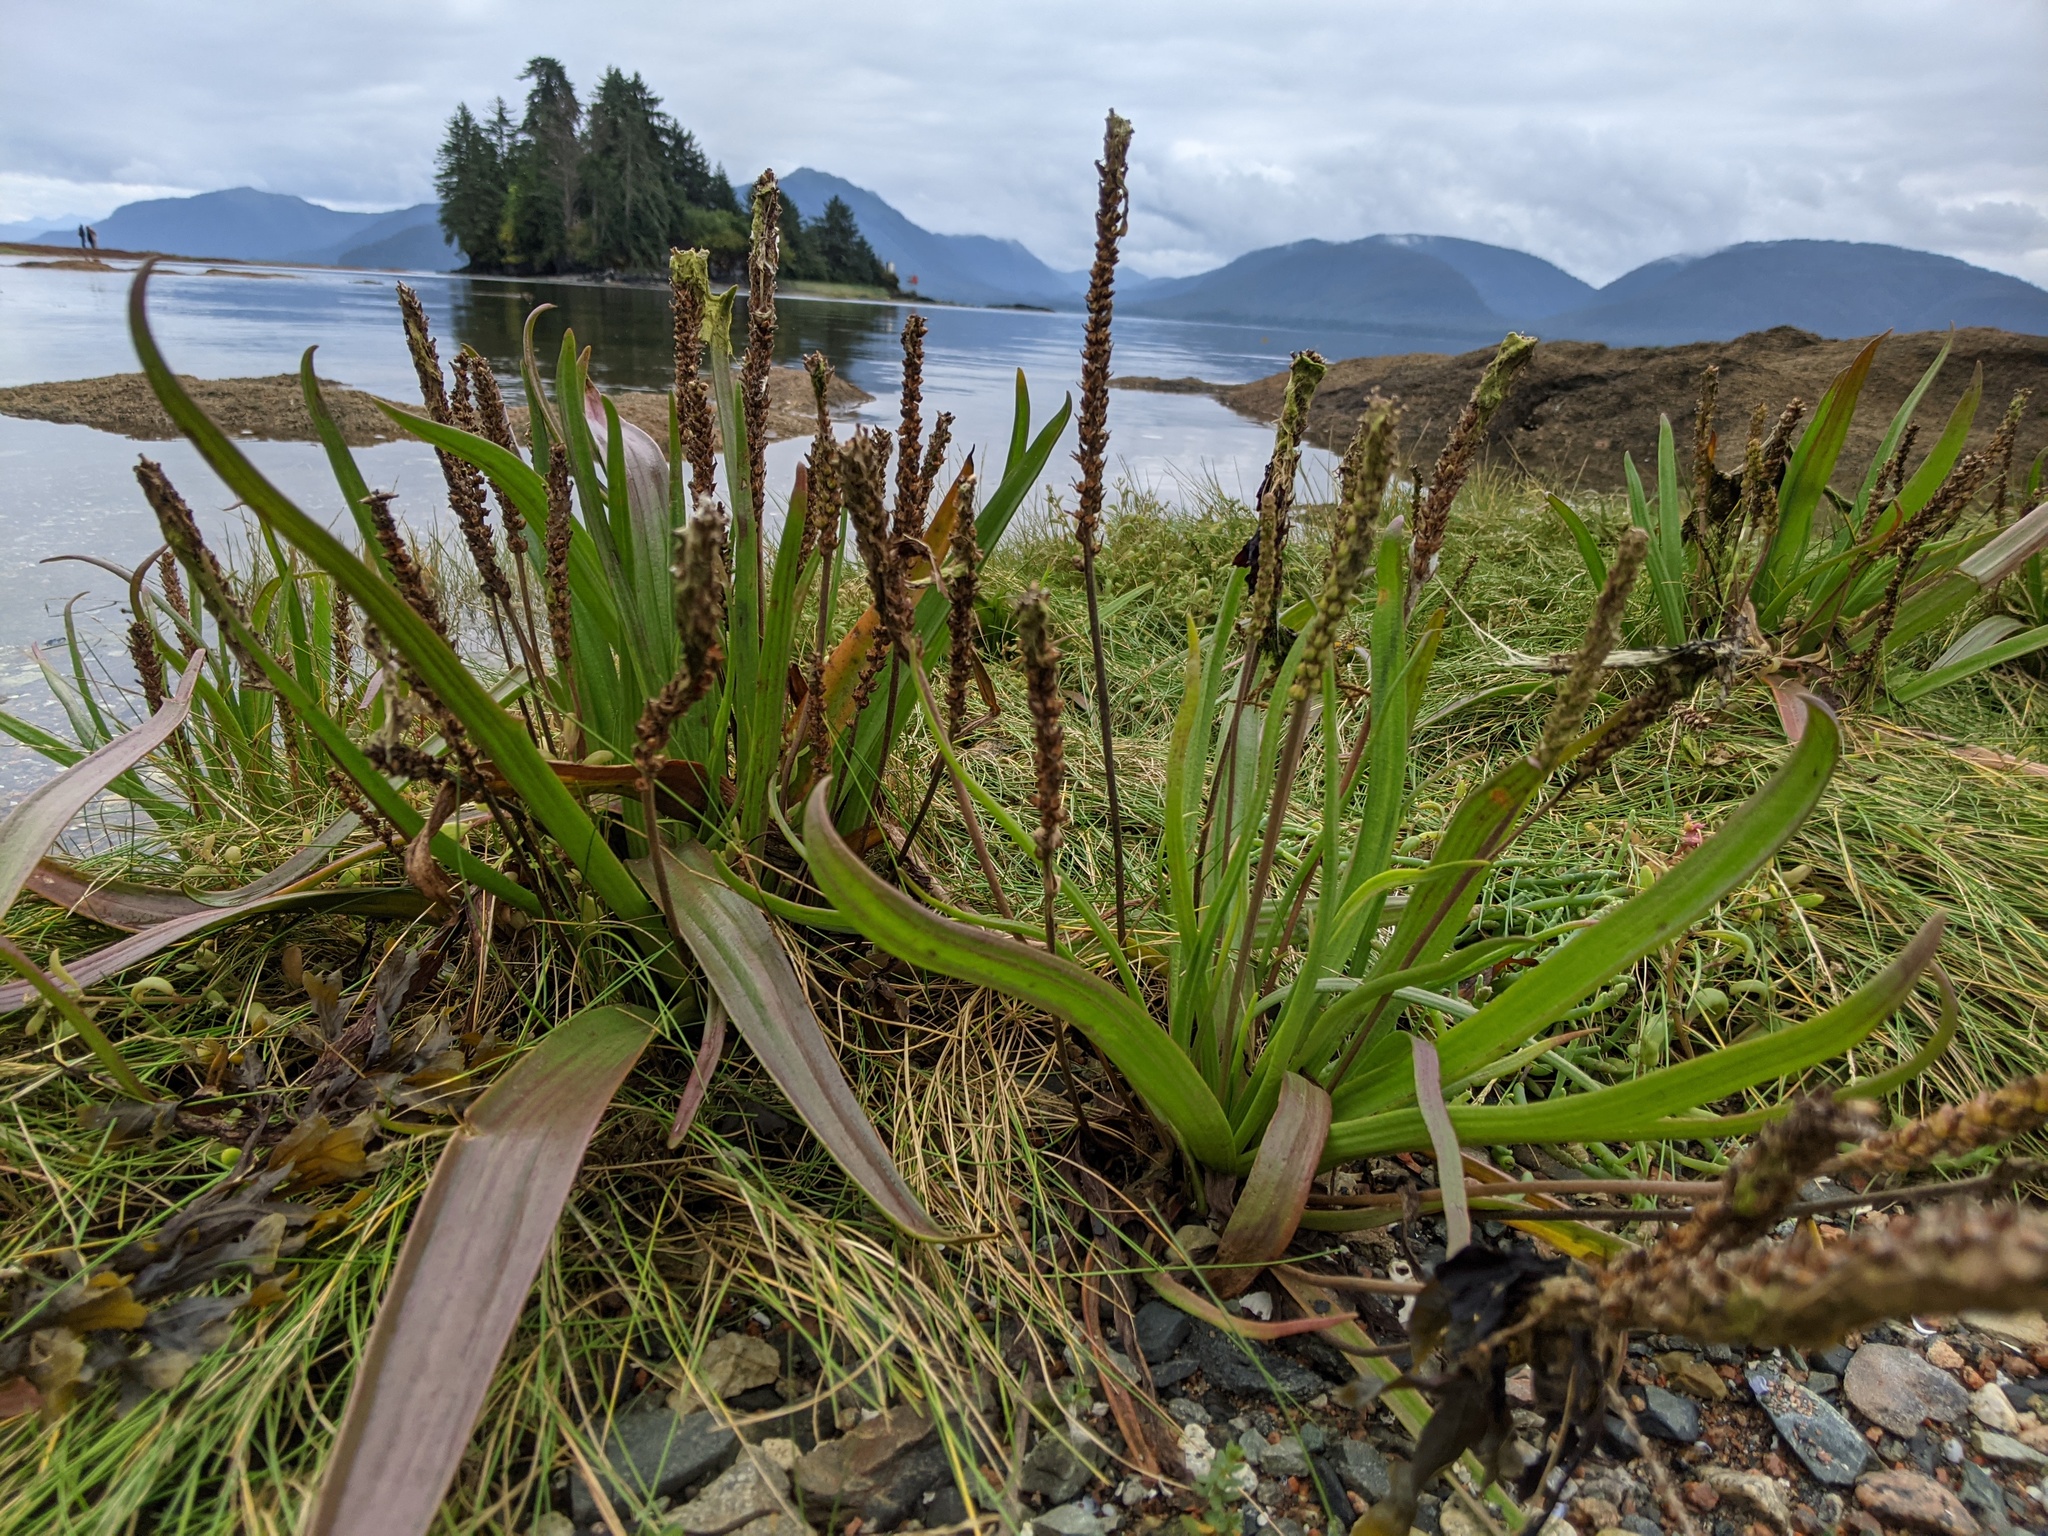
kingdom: Plantae
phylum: Tracheophyta
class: Magnoliopsida
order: Lamiales
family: Plantaginaceae
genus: Plantago
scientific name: Plantago maritima
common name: Sea plantain
